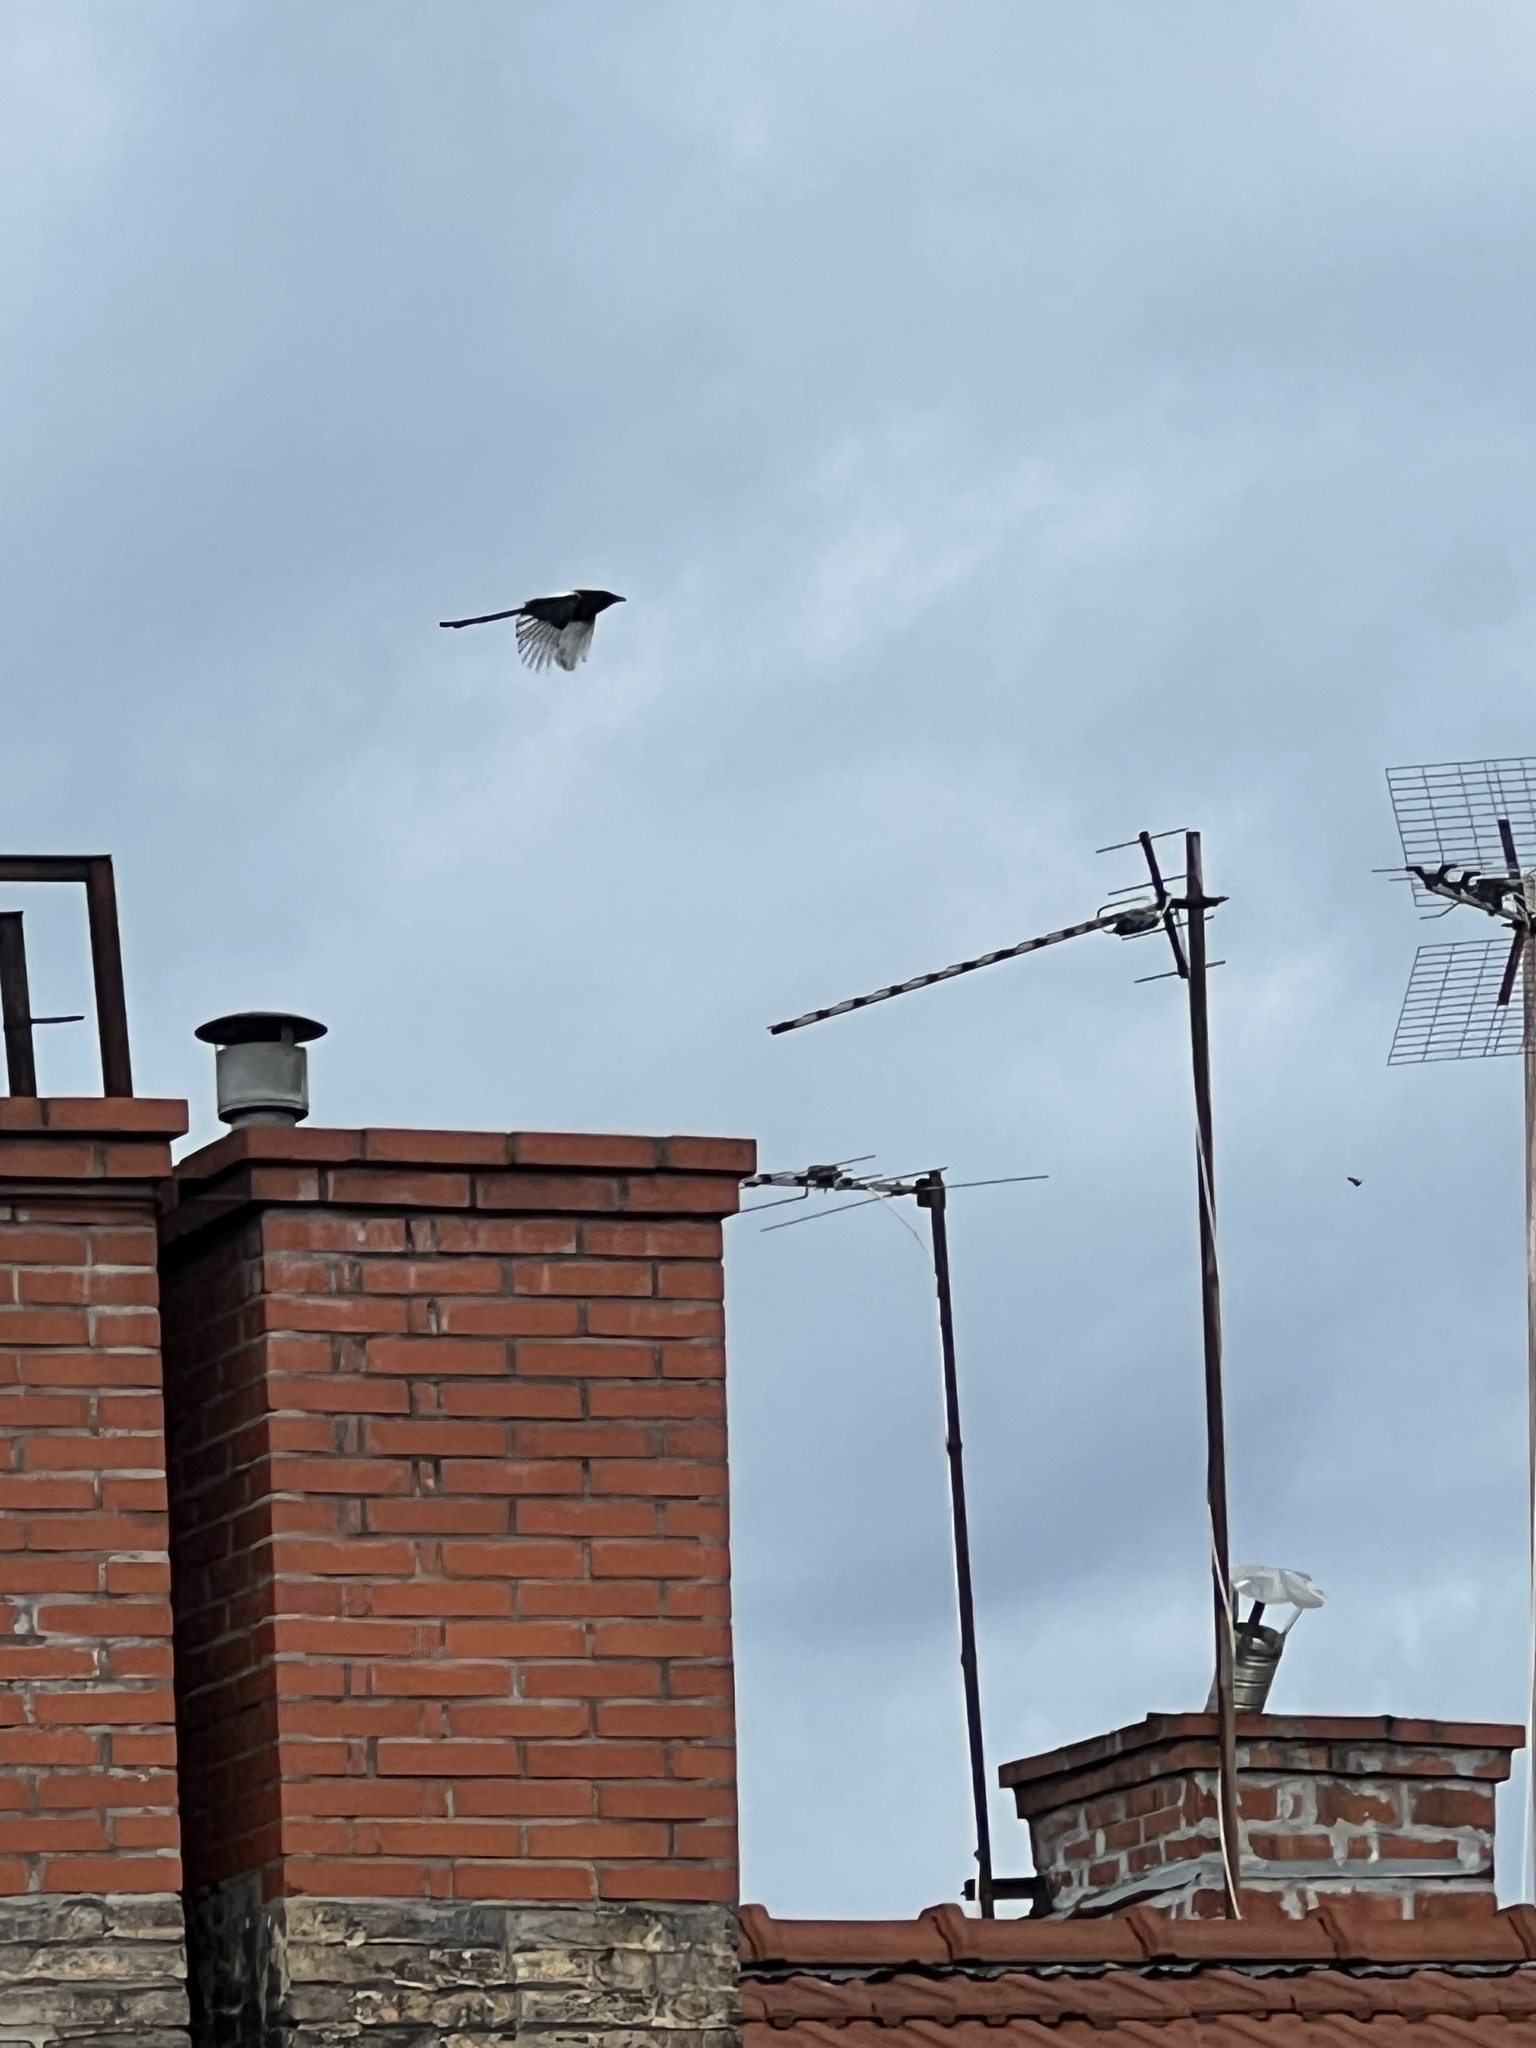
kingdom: Animalia
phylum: Chordata
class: Aves
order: Passeriformes
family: Corvidae
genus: Pica
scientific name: Pica pica
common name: Eurasian magpie
